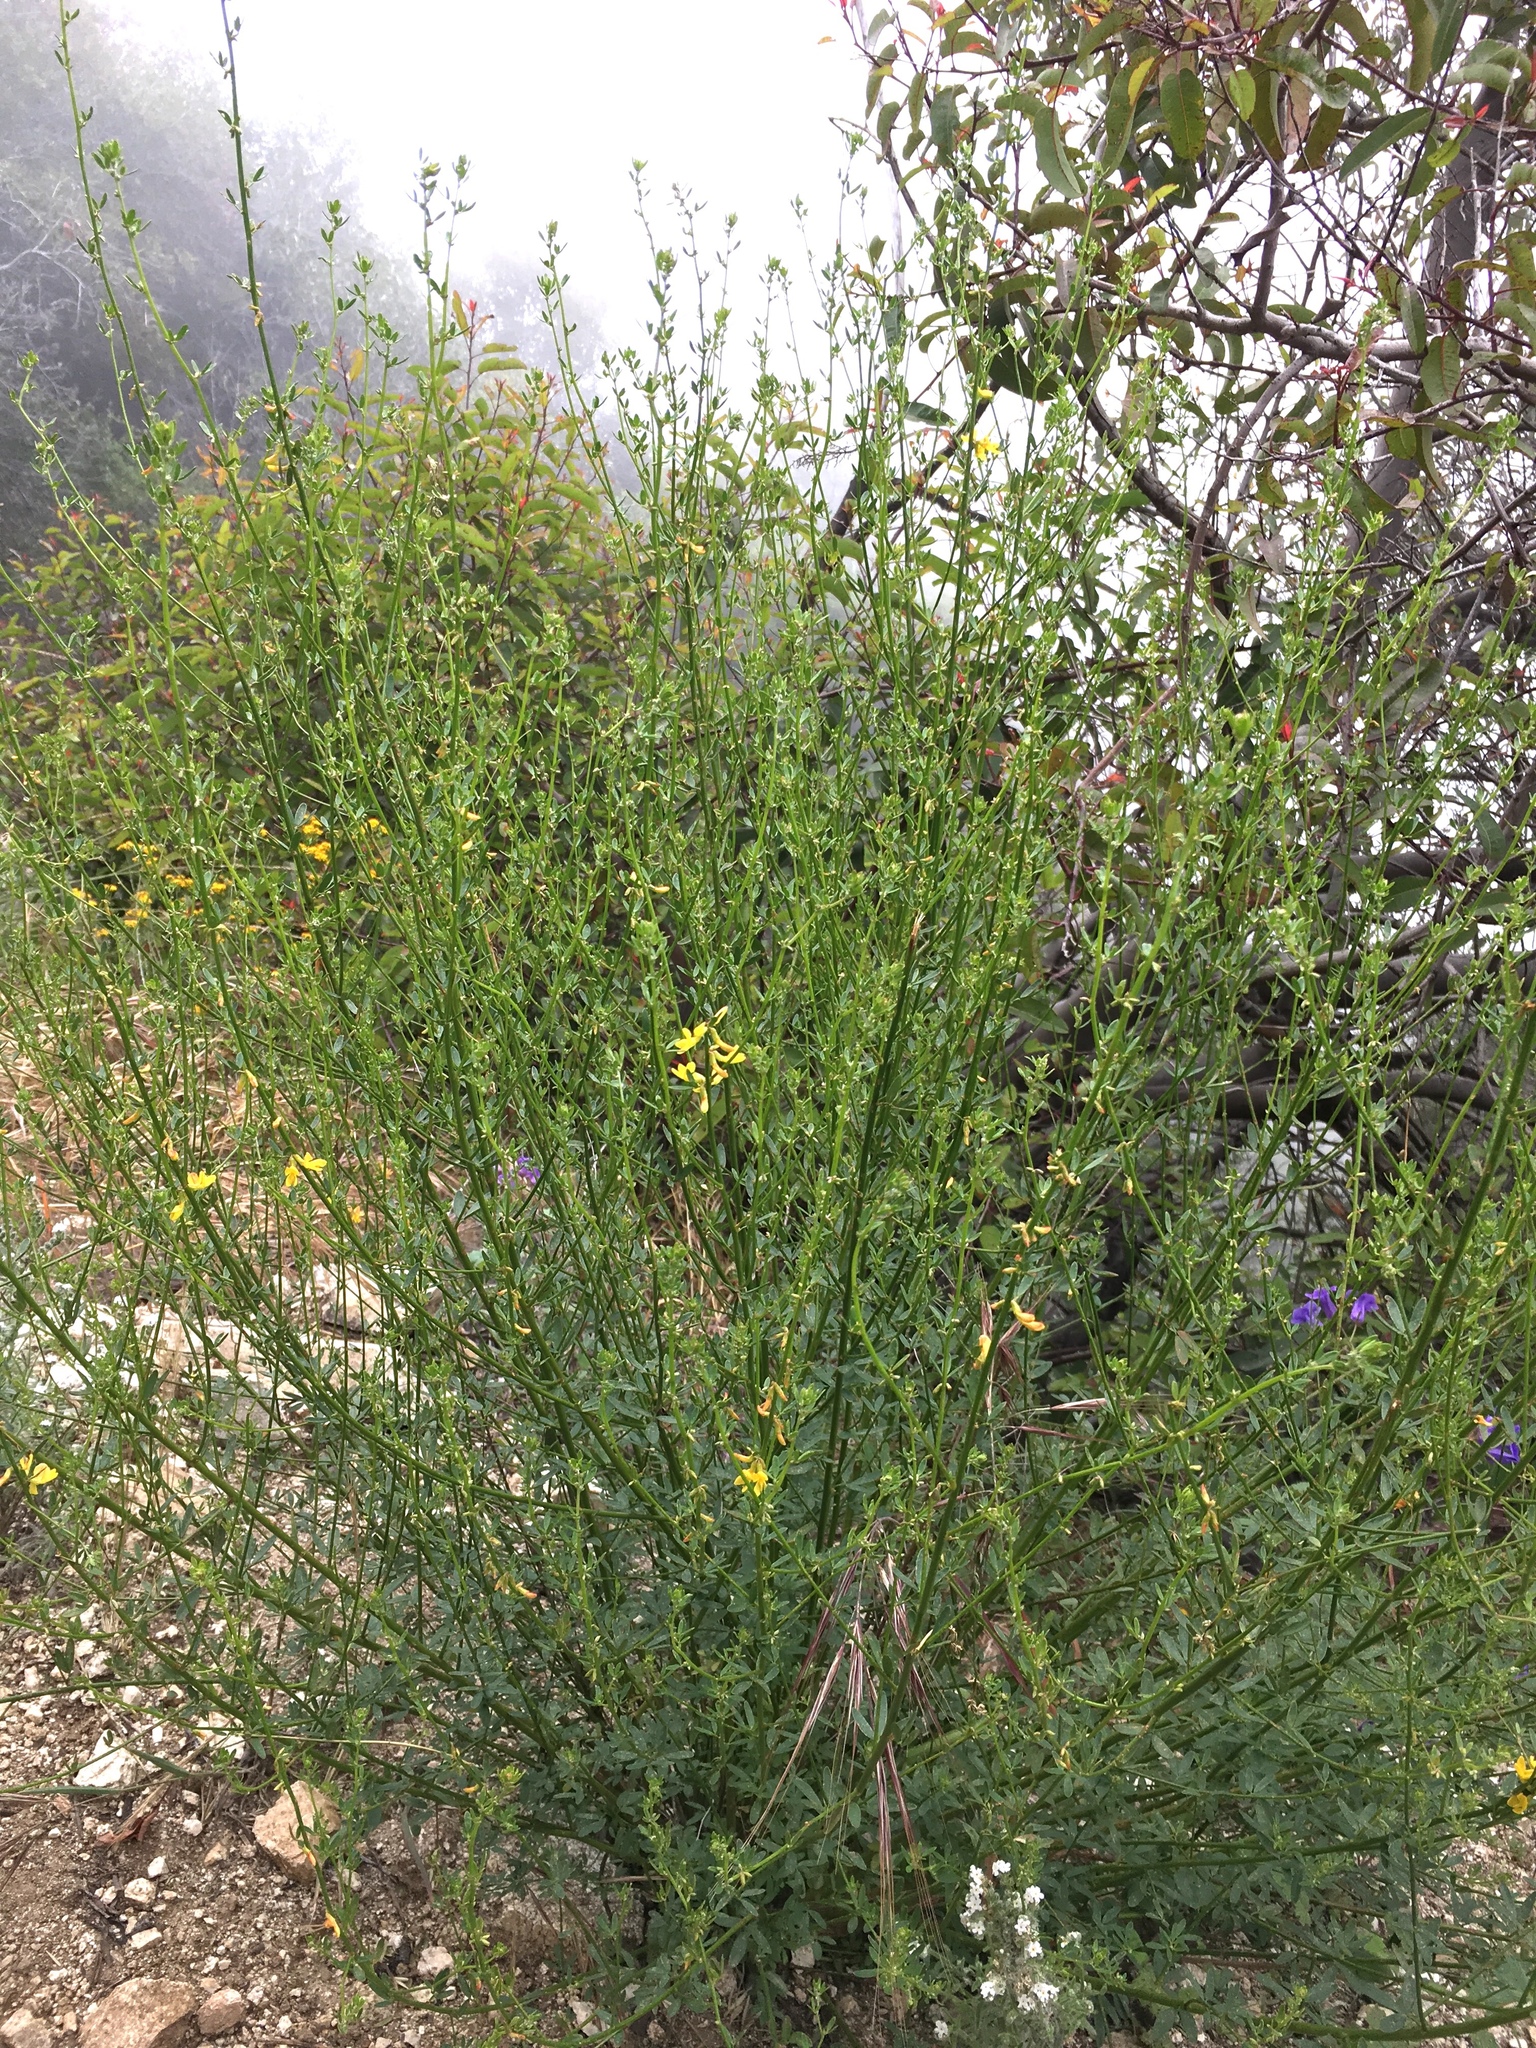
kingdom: Plantae
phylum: Tracheophyta
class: Magnoliopsida
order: Fabales
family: Fabaceae
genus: Acmispon
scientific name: Acmispon glaber
